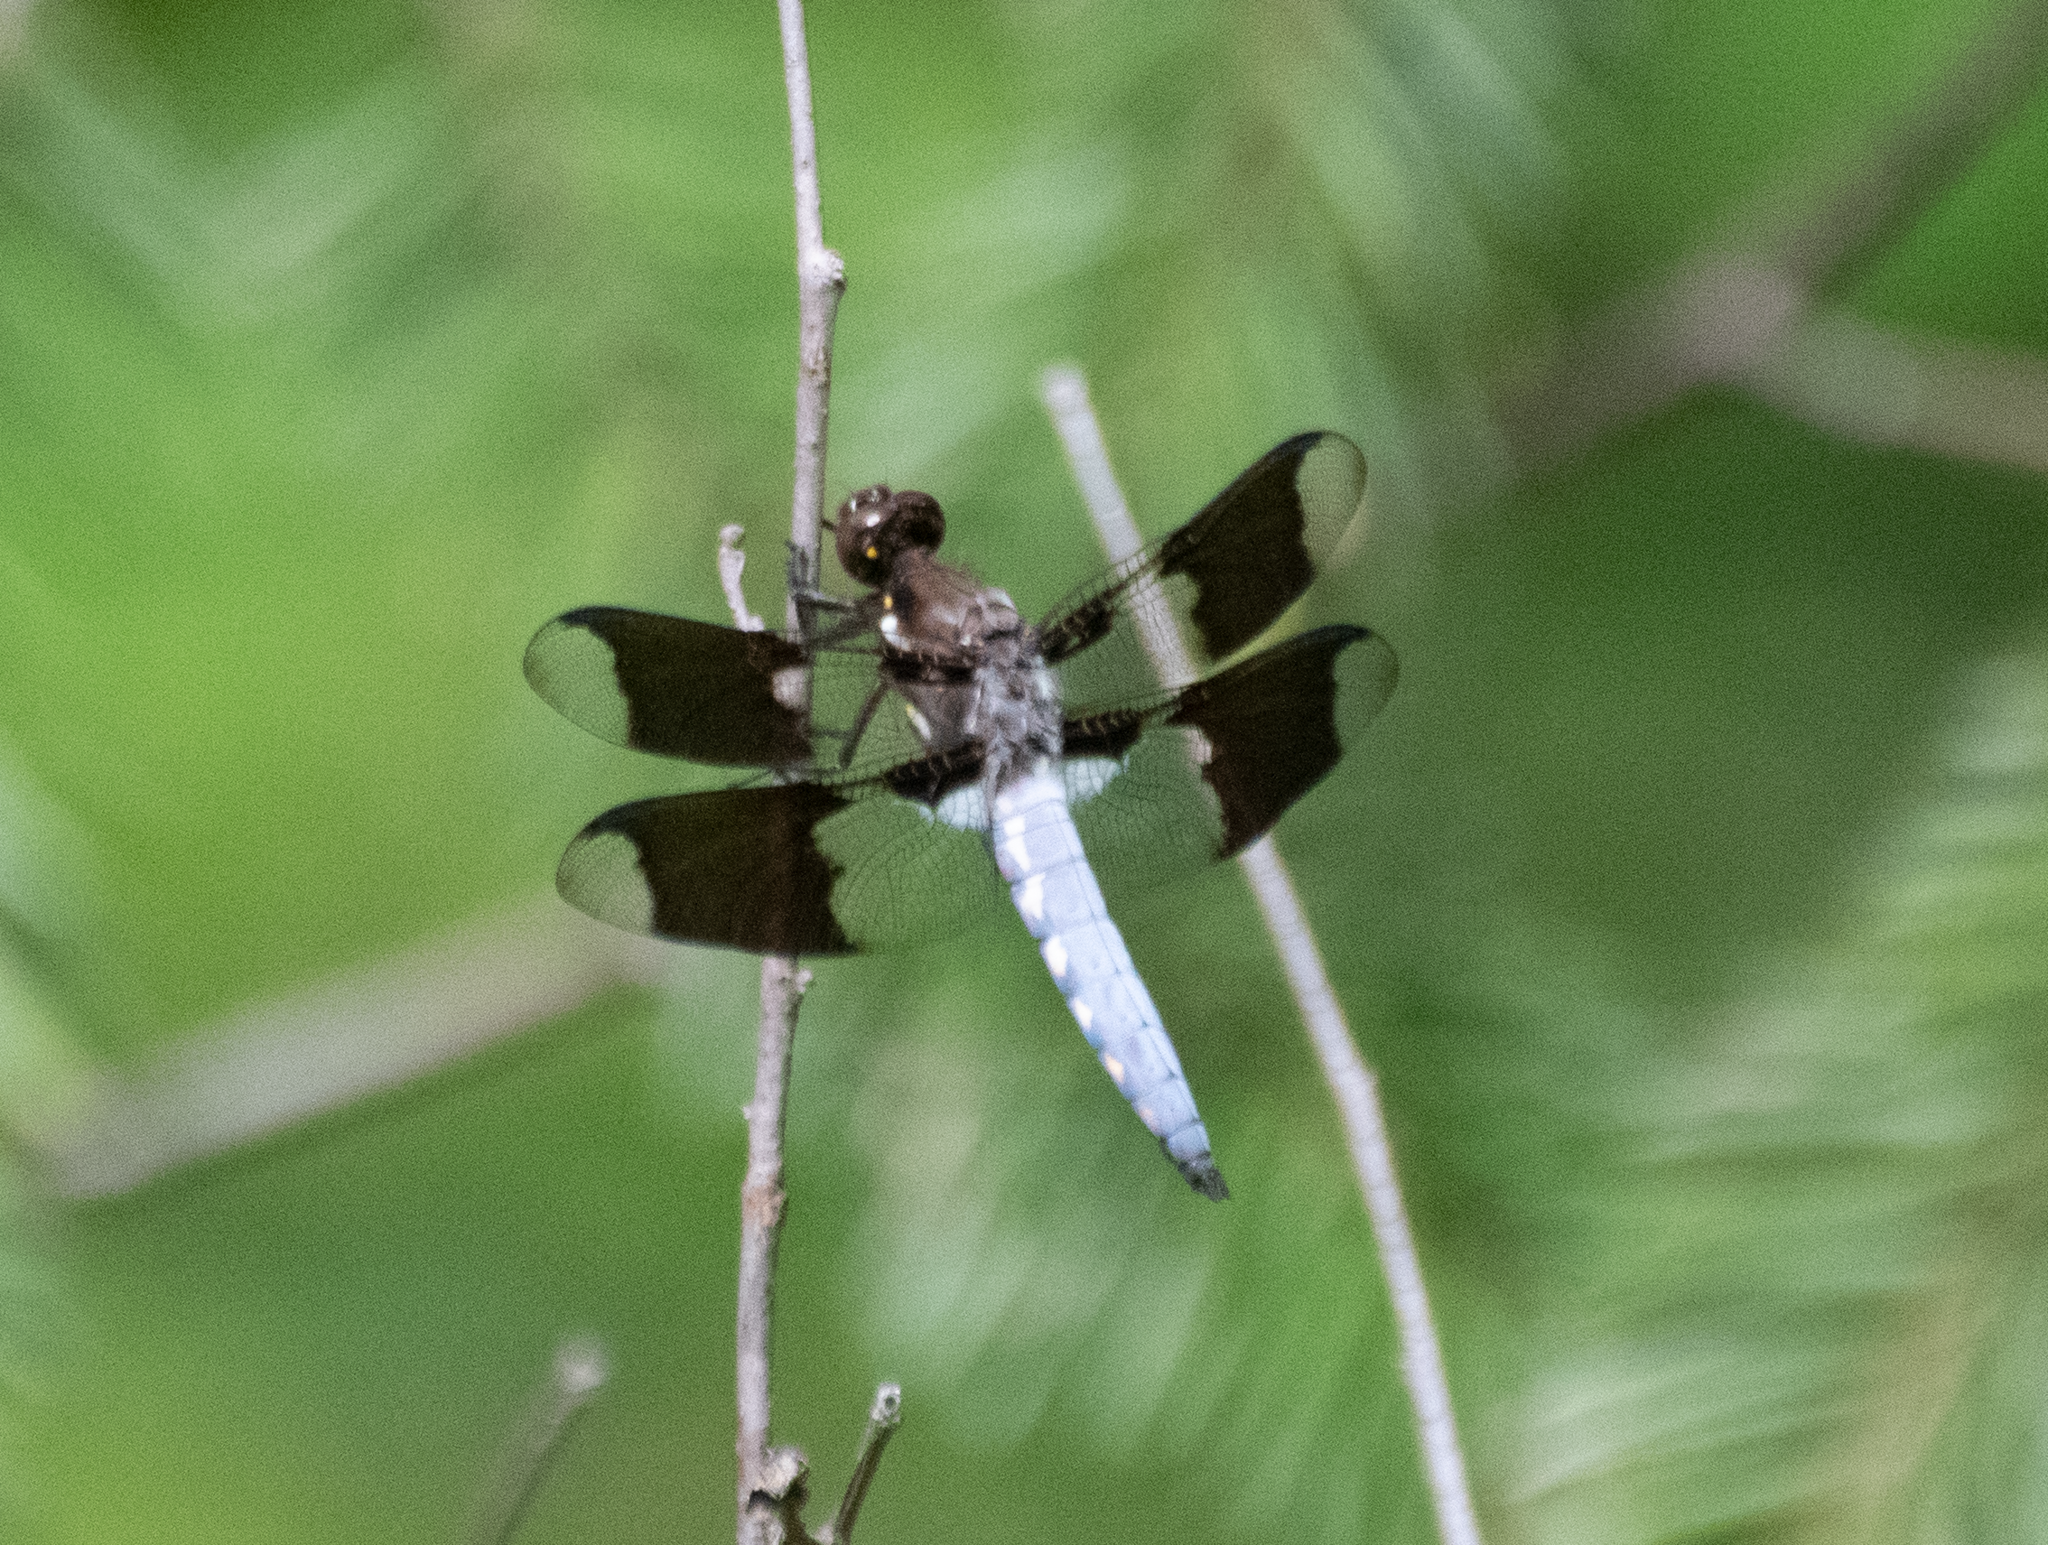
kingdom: Animalia
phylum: Arthropoda
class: Insecta
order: Odonata
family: Libellulidae
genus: Plathemis
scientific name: Plathemis lydia
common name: Common whitetail
